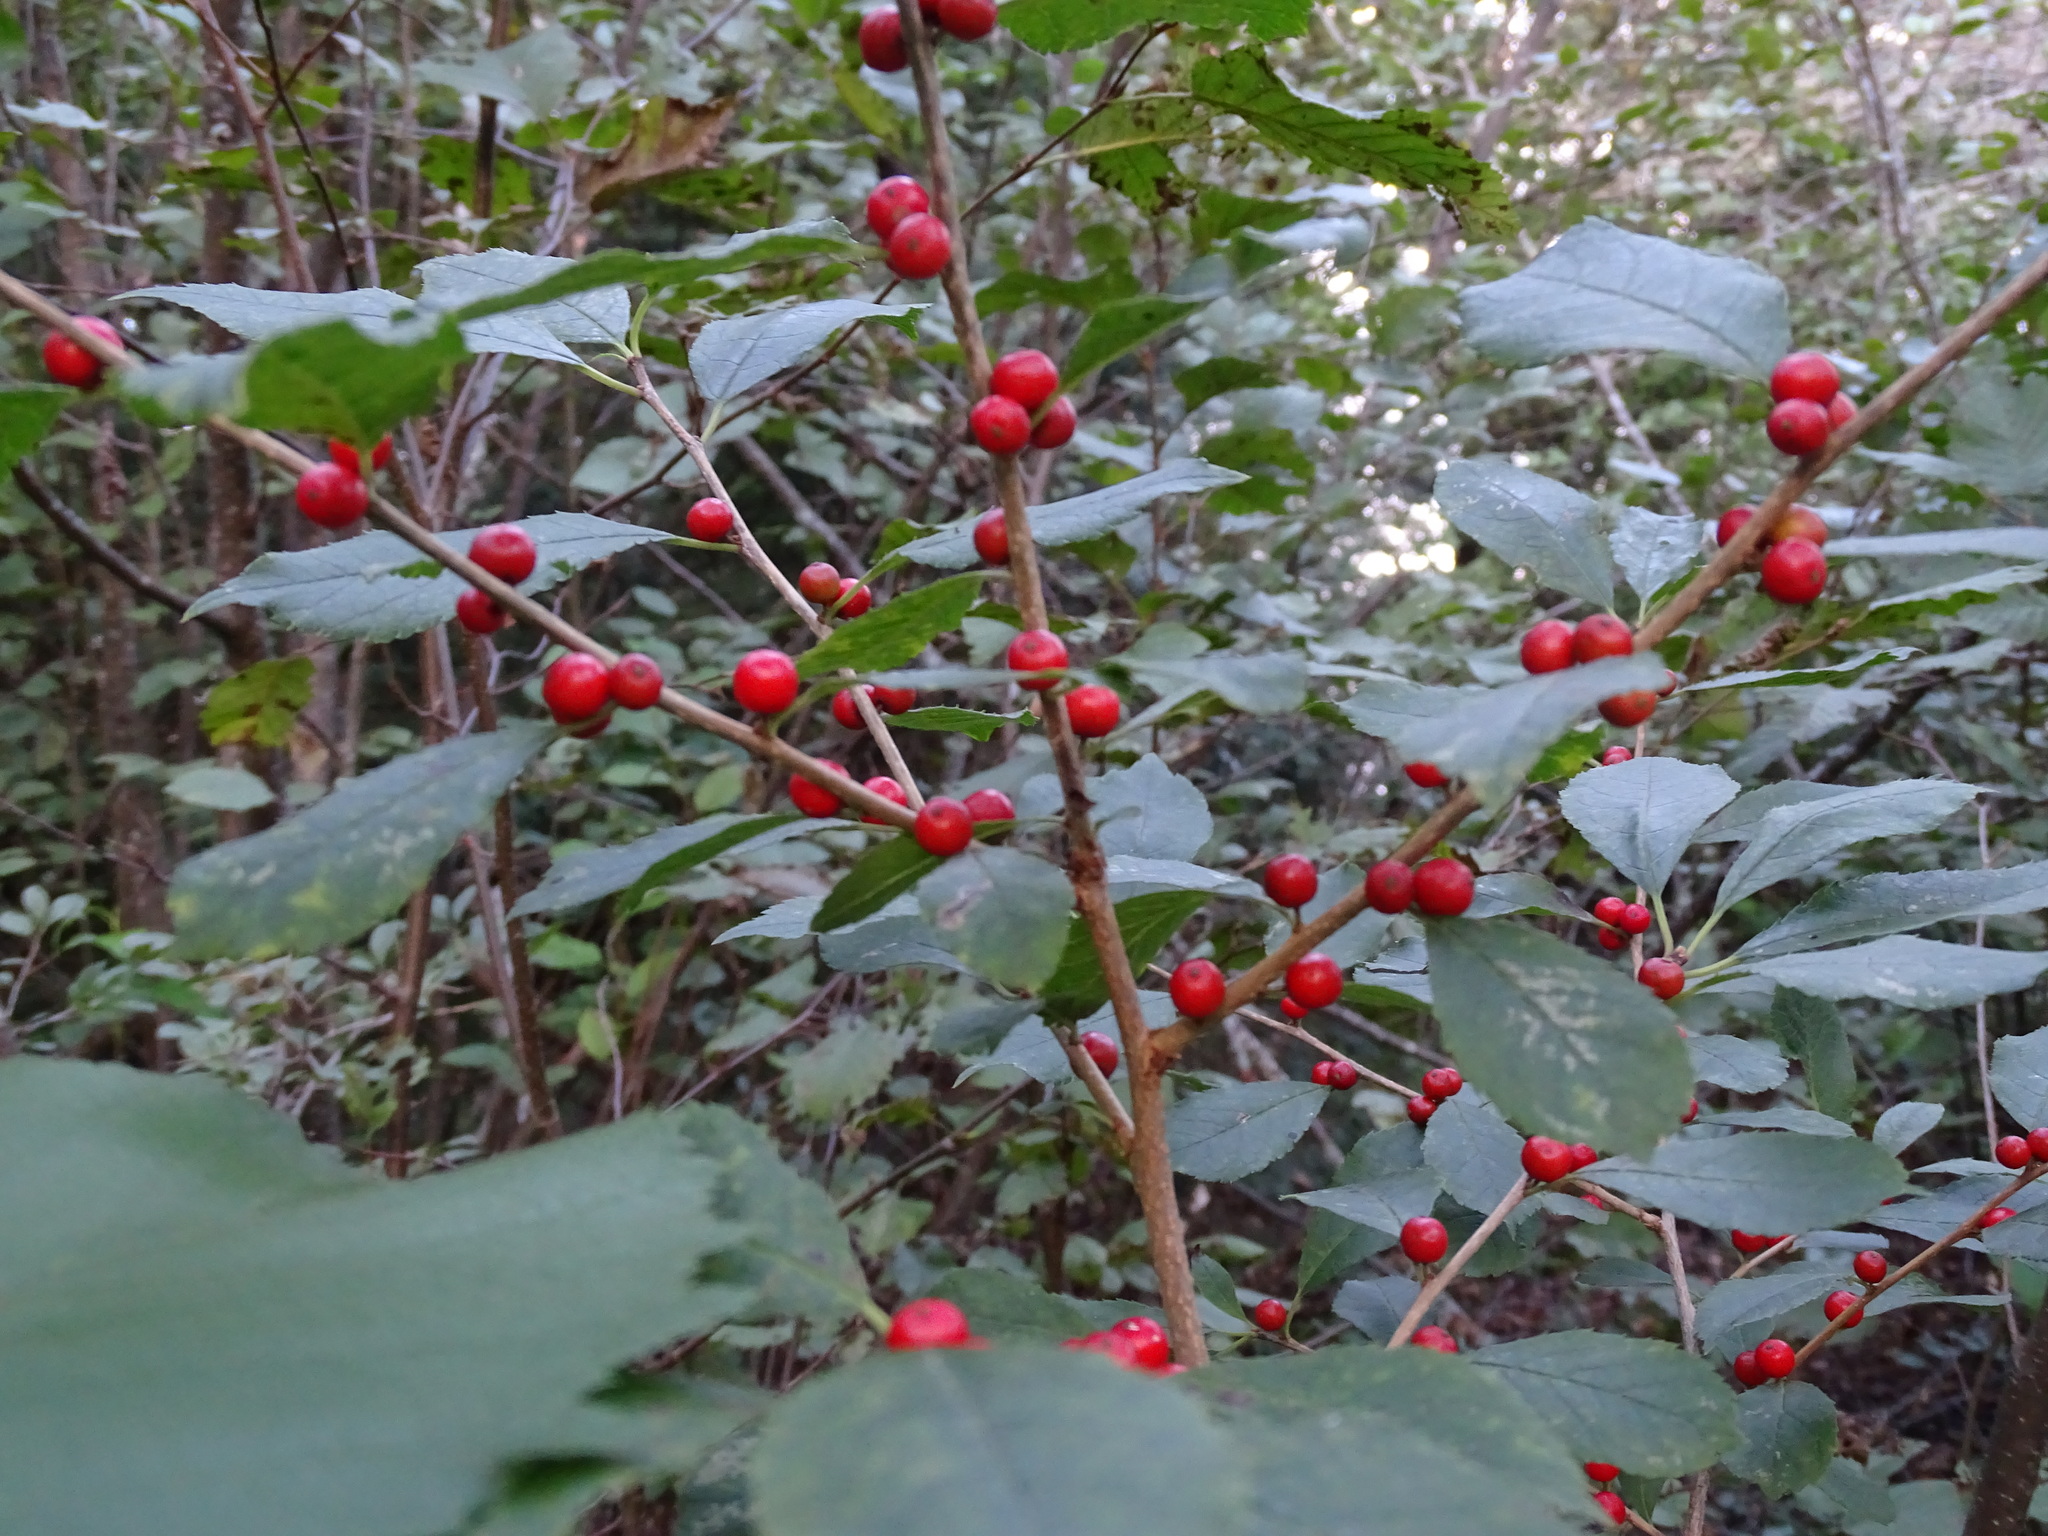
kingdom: Plantae
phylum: Tracheophyta
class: Magnoliopsida
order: Aquifoliales
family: Aquifoliaceae
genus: Ilex
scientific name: Ilex verticillata
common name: Virginia winterberry
